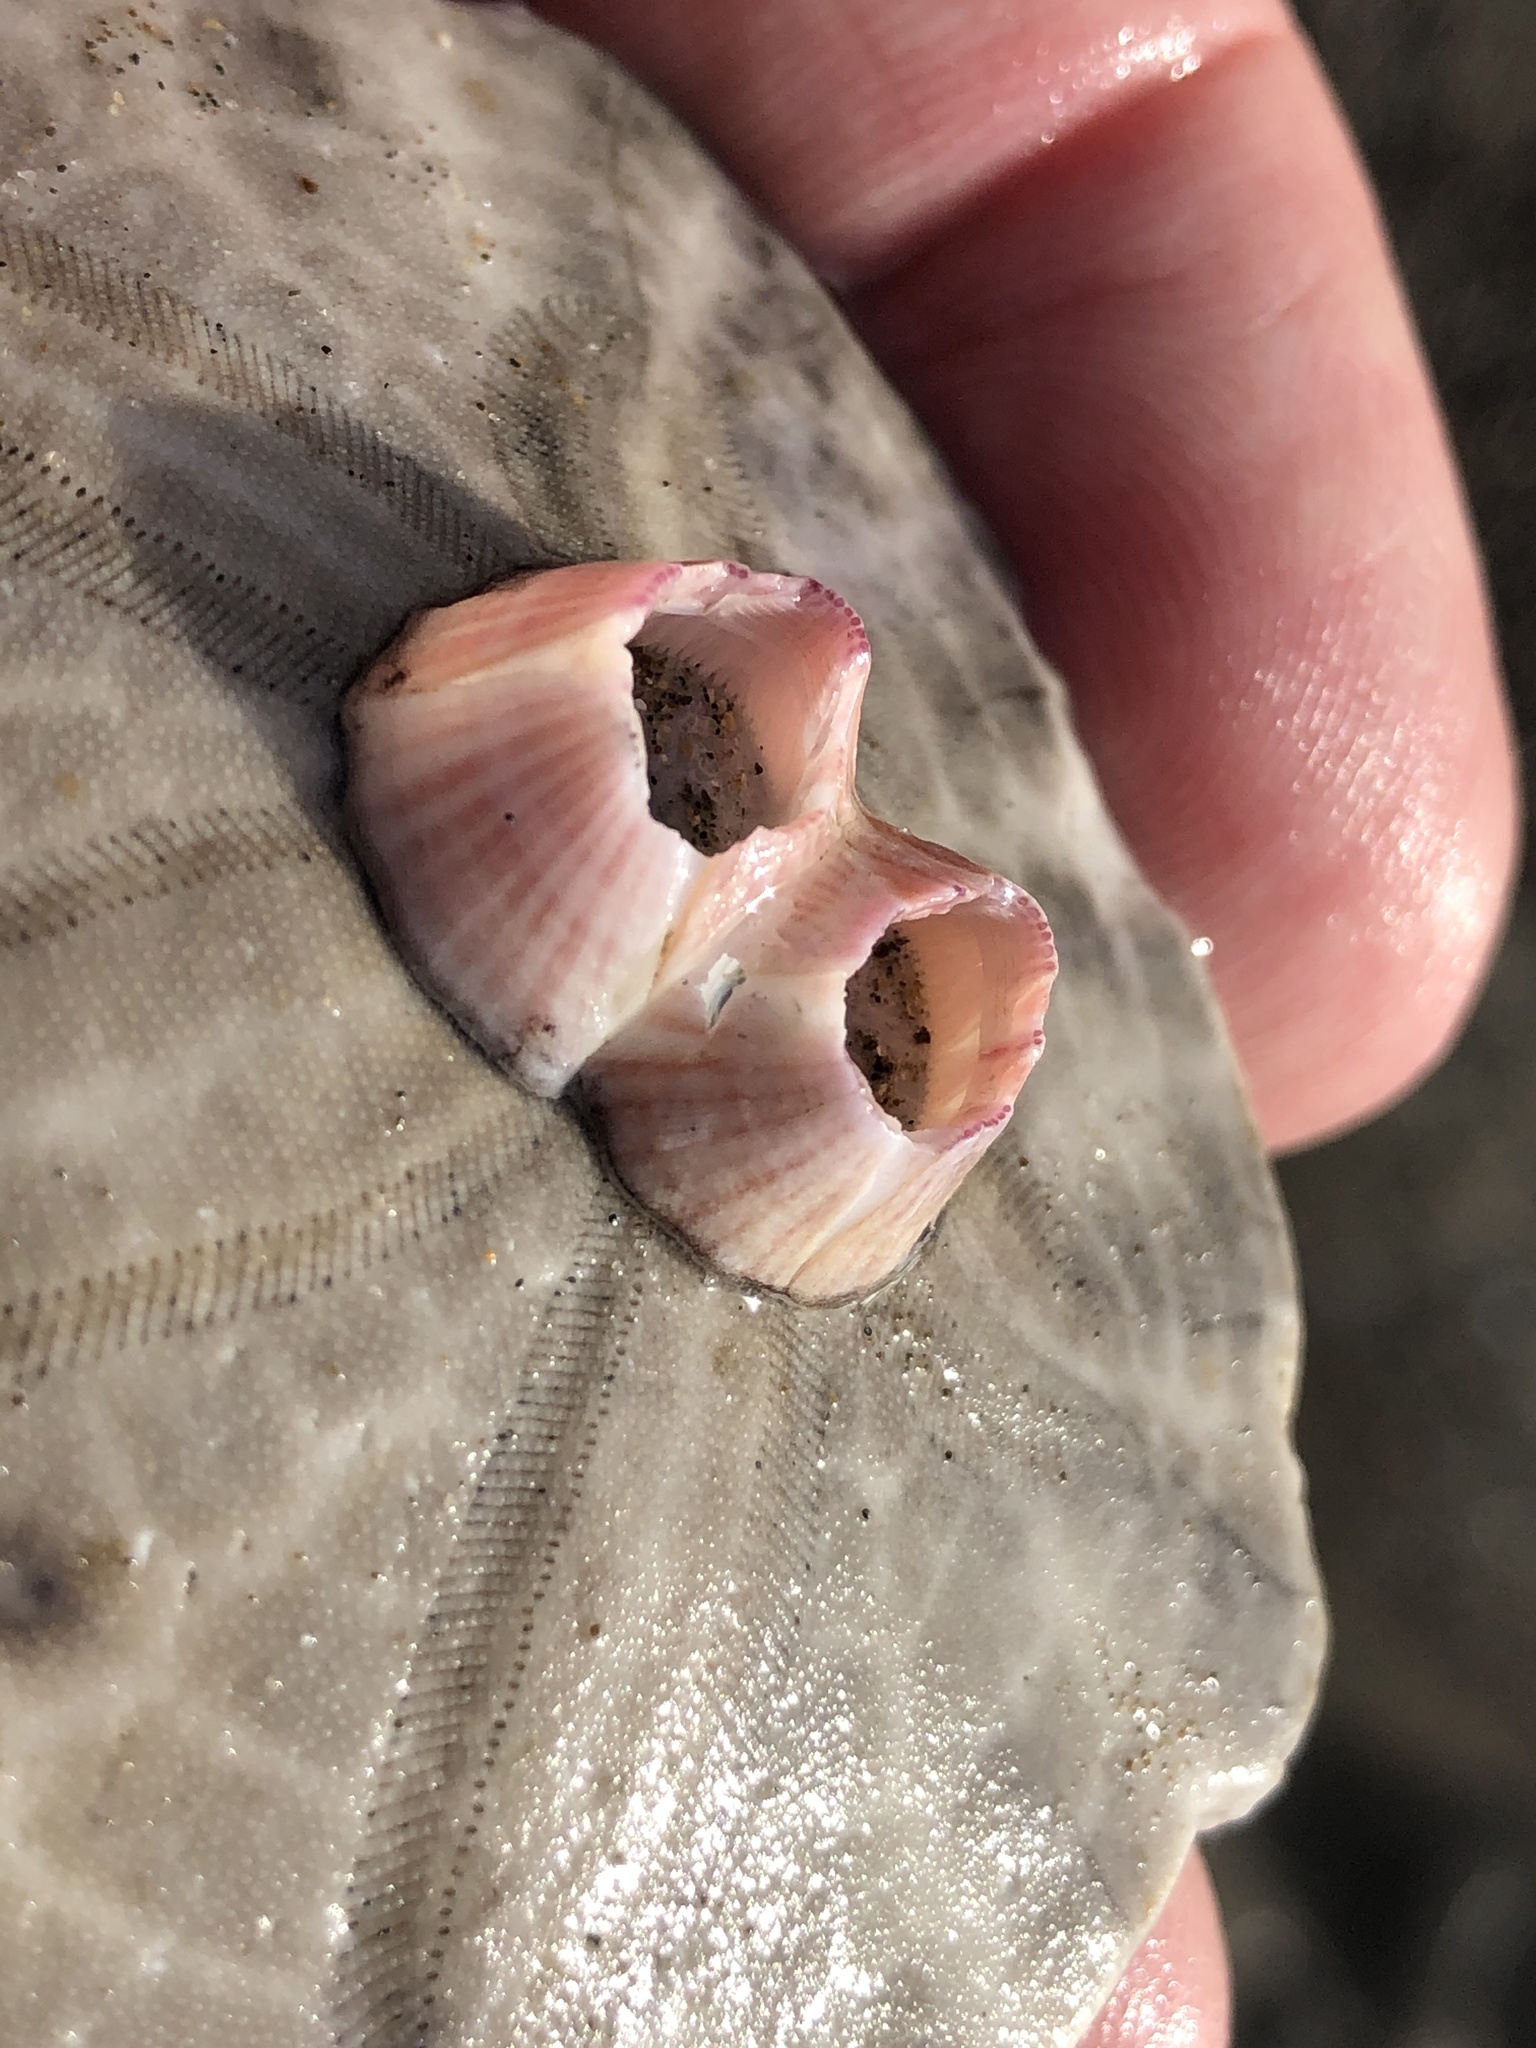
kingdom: Animalia
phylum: Arthropoda
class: Maxillopoda
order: Sessilia
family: Balanidae
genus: Paraconcavus
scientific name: Paraconcavus pacificus
